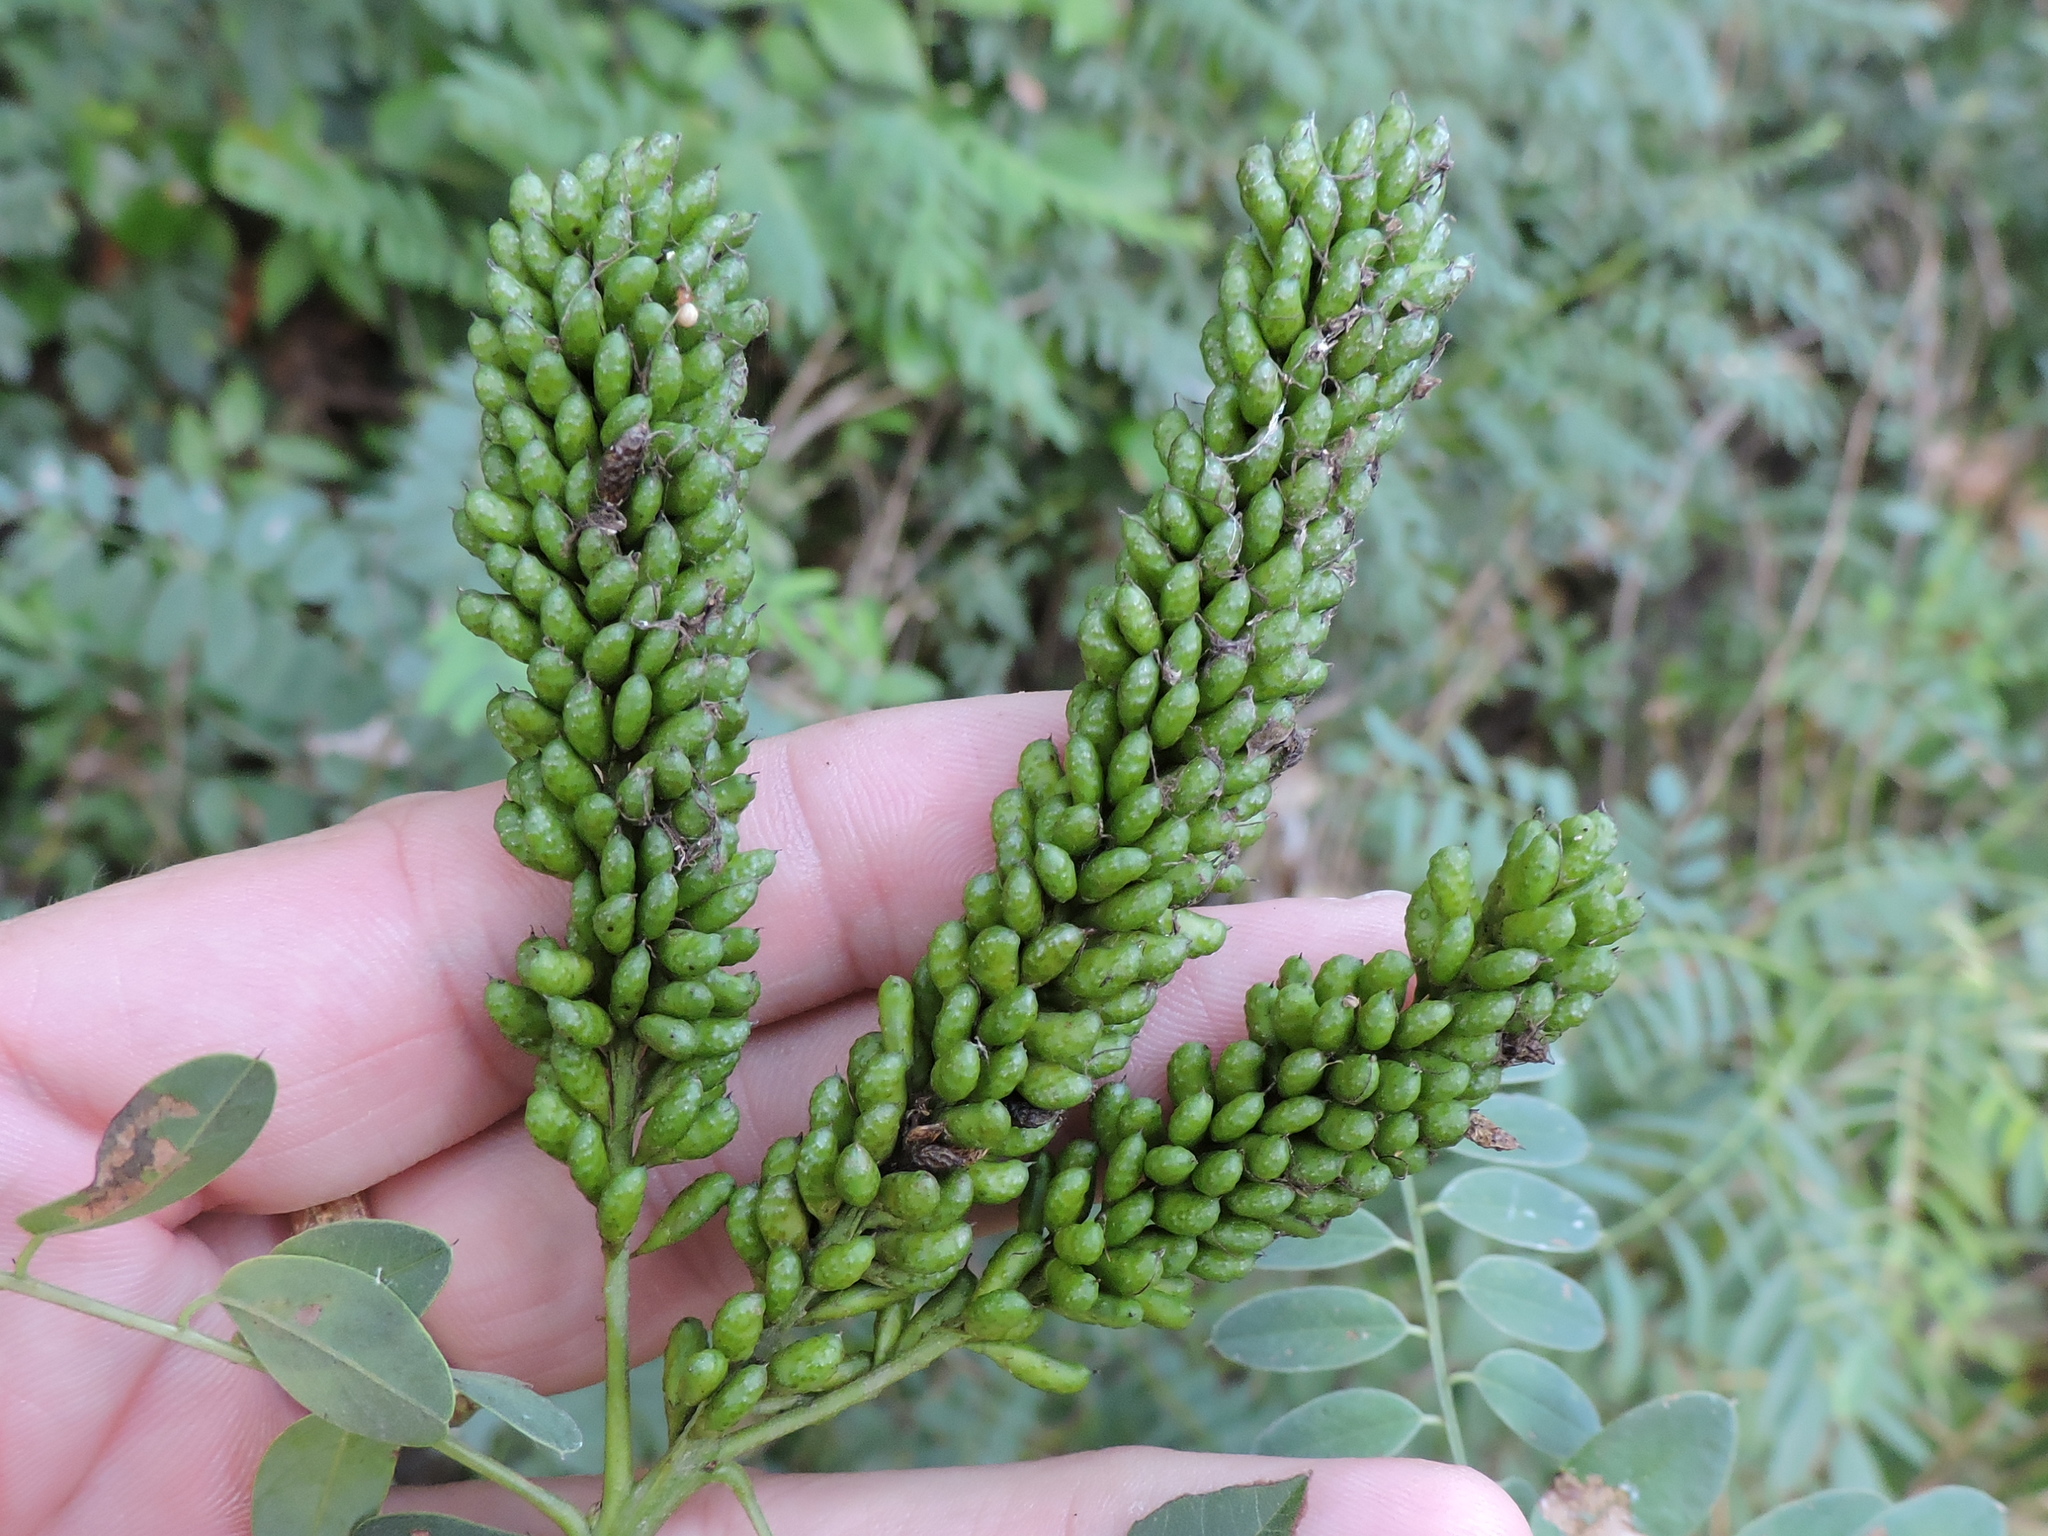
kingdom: Plantae
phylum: Tracheophyta
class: Magnoliopsida
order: Fabales
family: Fabaceae
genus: Amorpha
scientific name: Amorpha fruticosa
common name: False indigo
